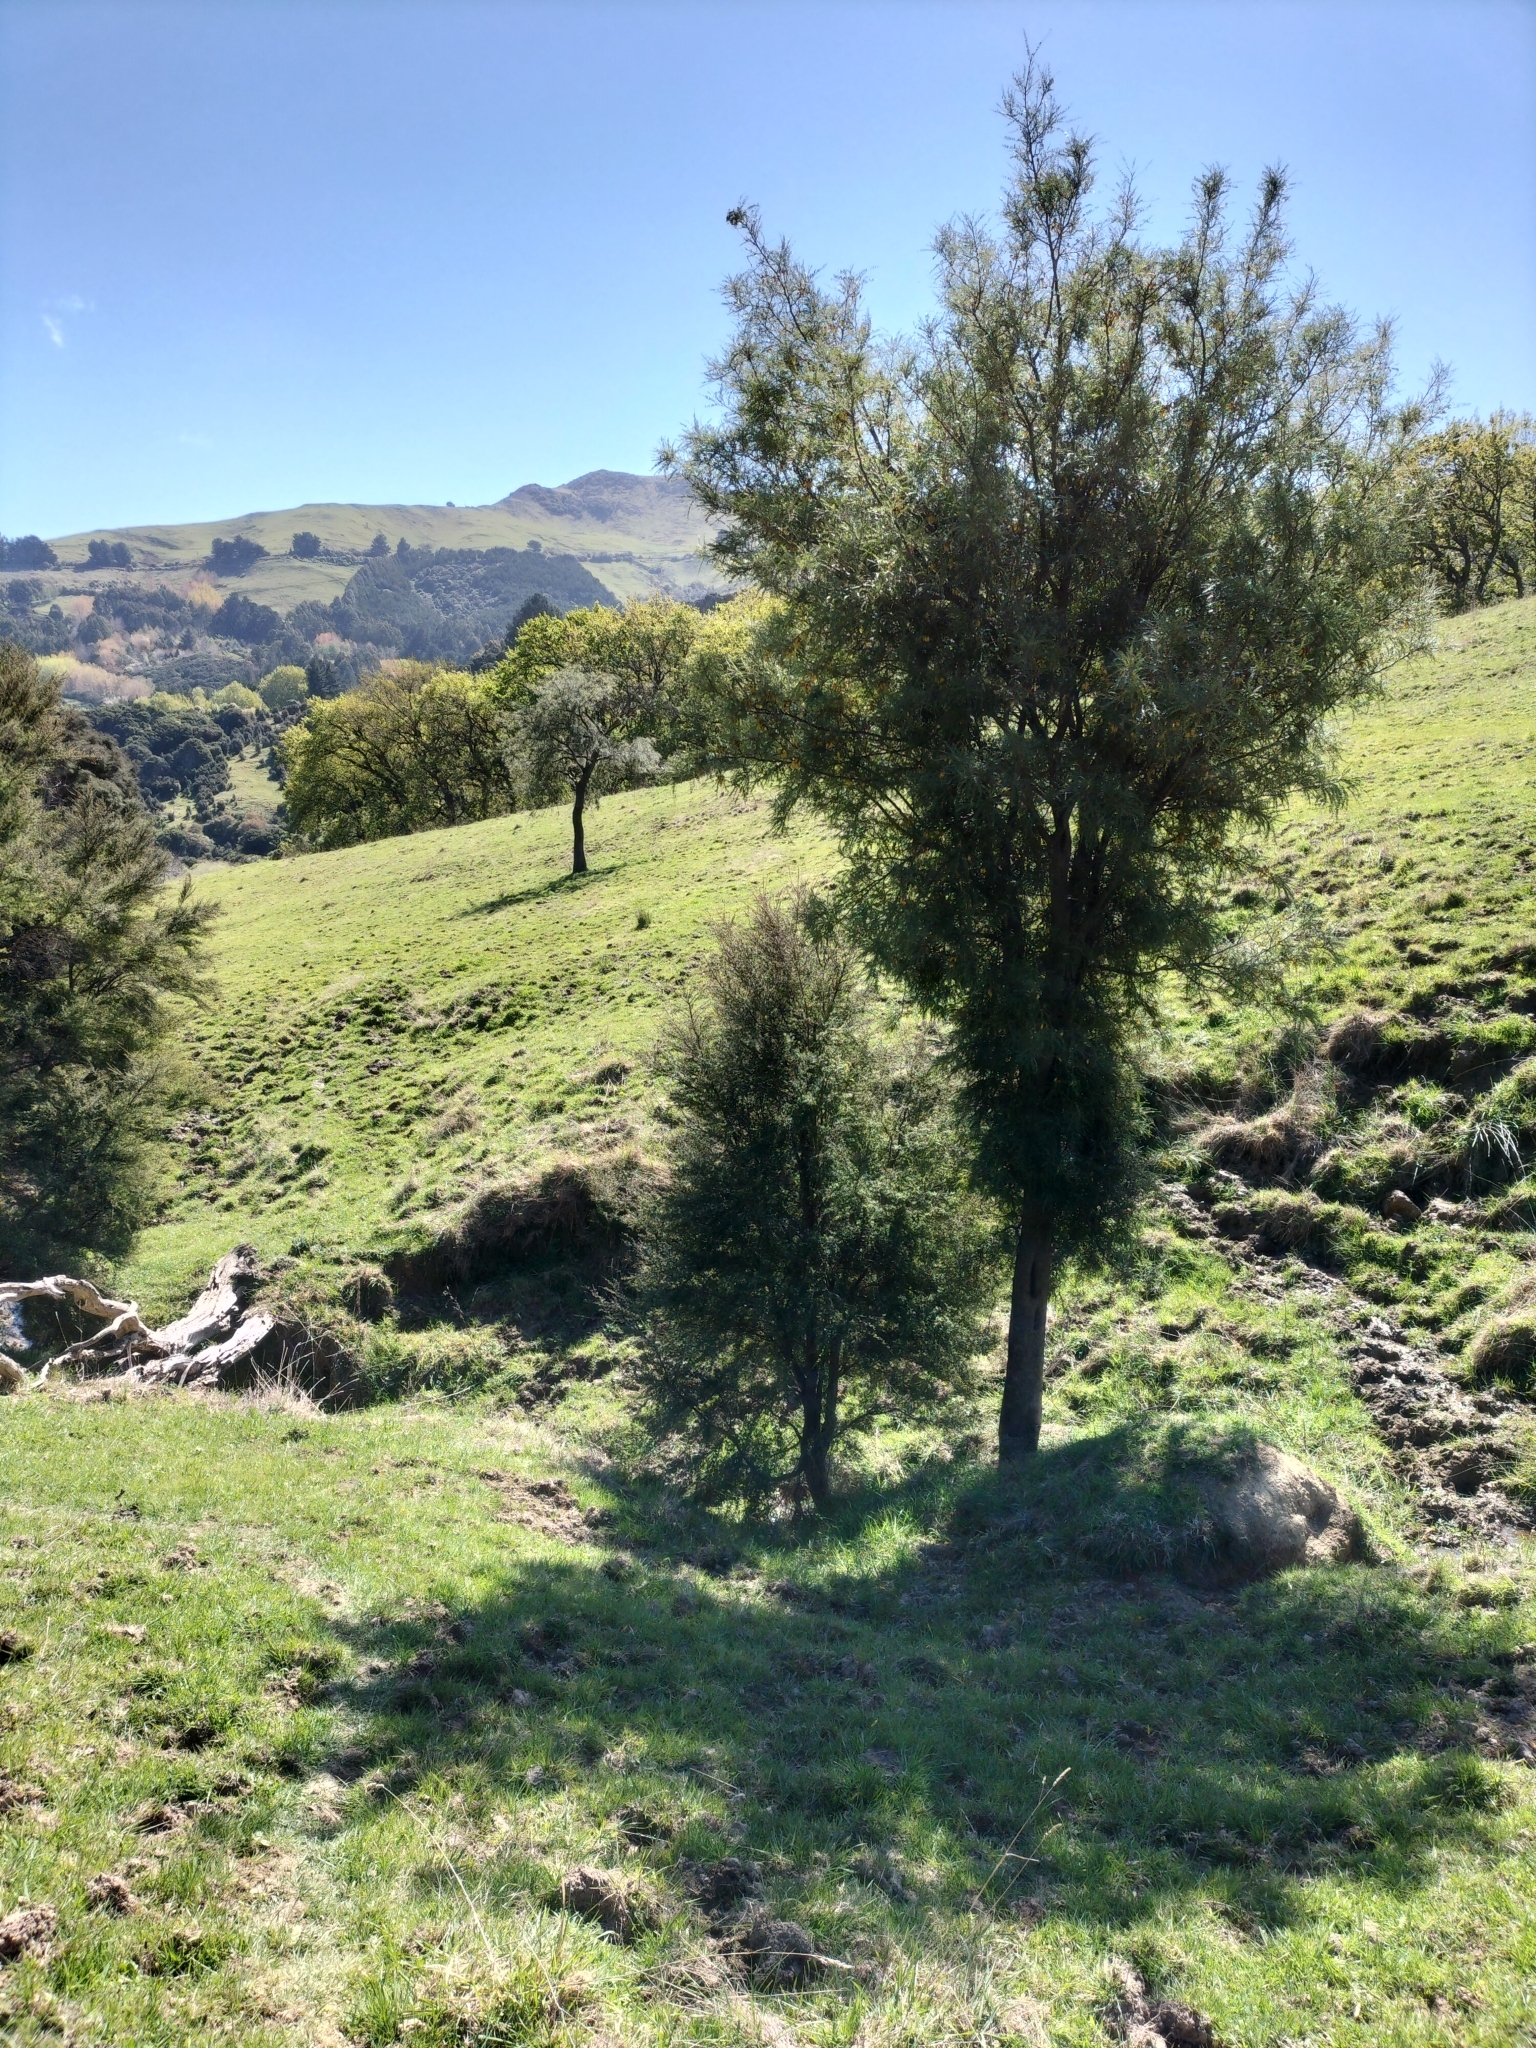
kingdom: Plantae
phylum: Tracheophyta
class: Magnoliopsida
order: Fabales
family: Fabaceae
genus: Sophora
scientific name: Sophora microphylla
